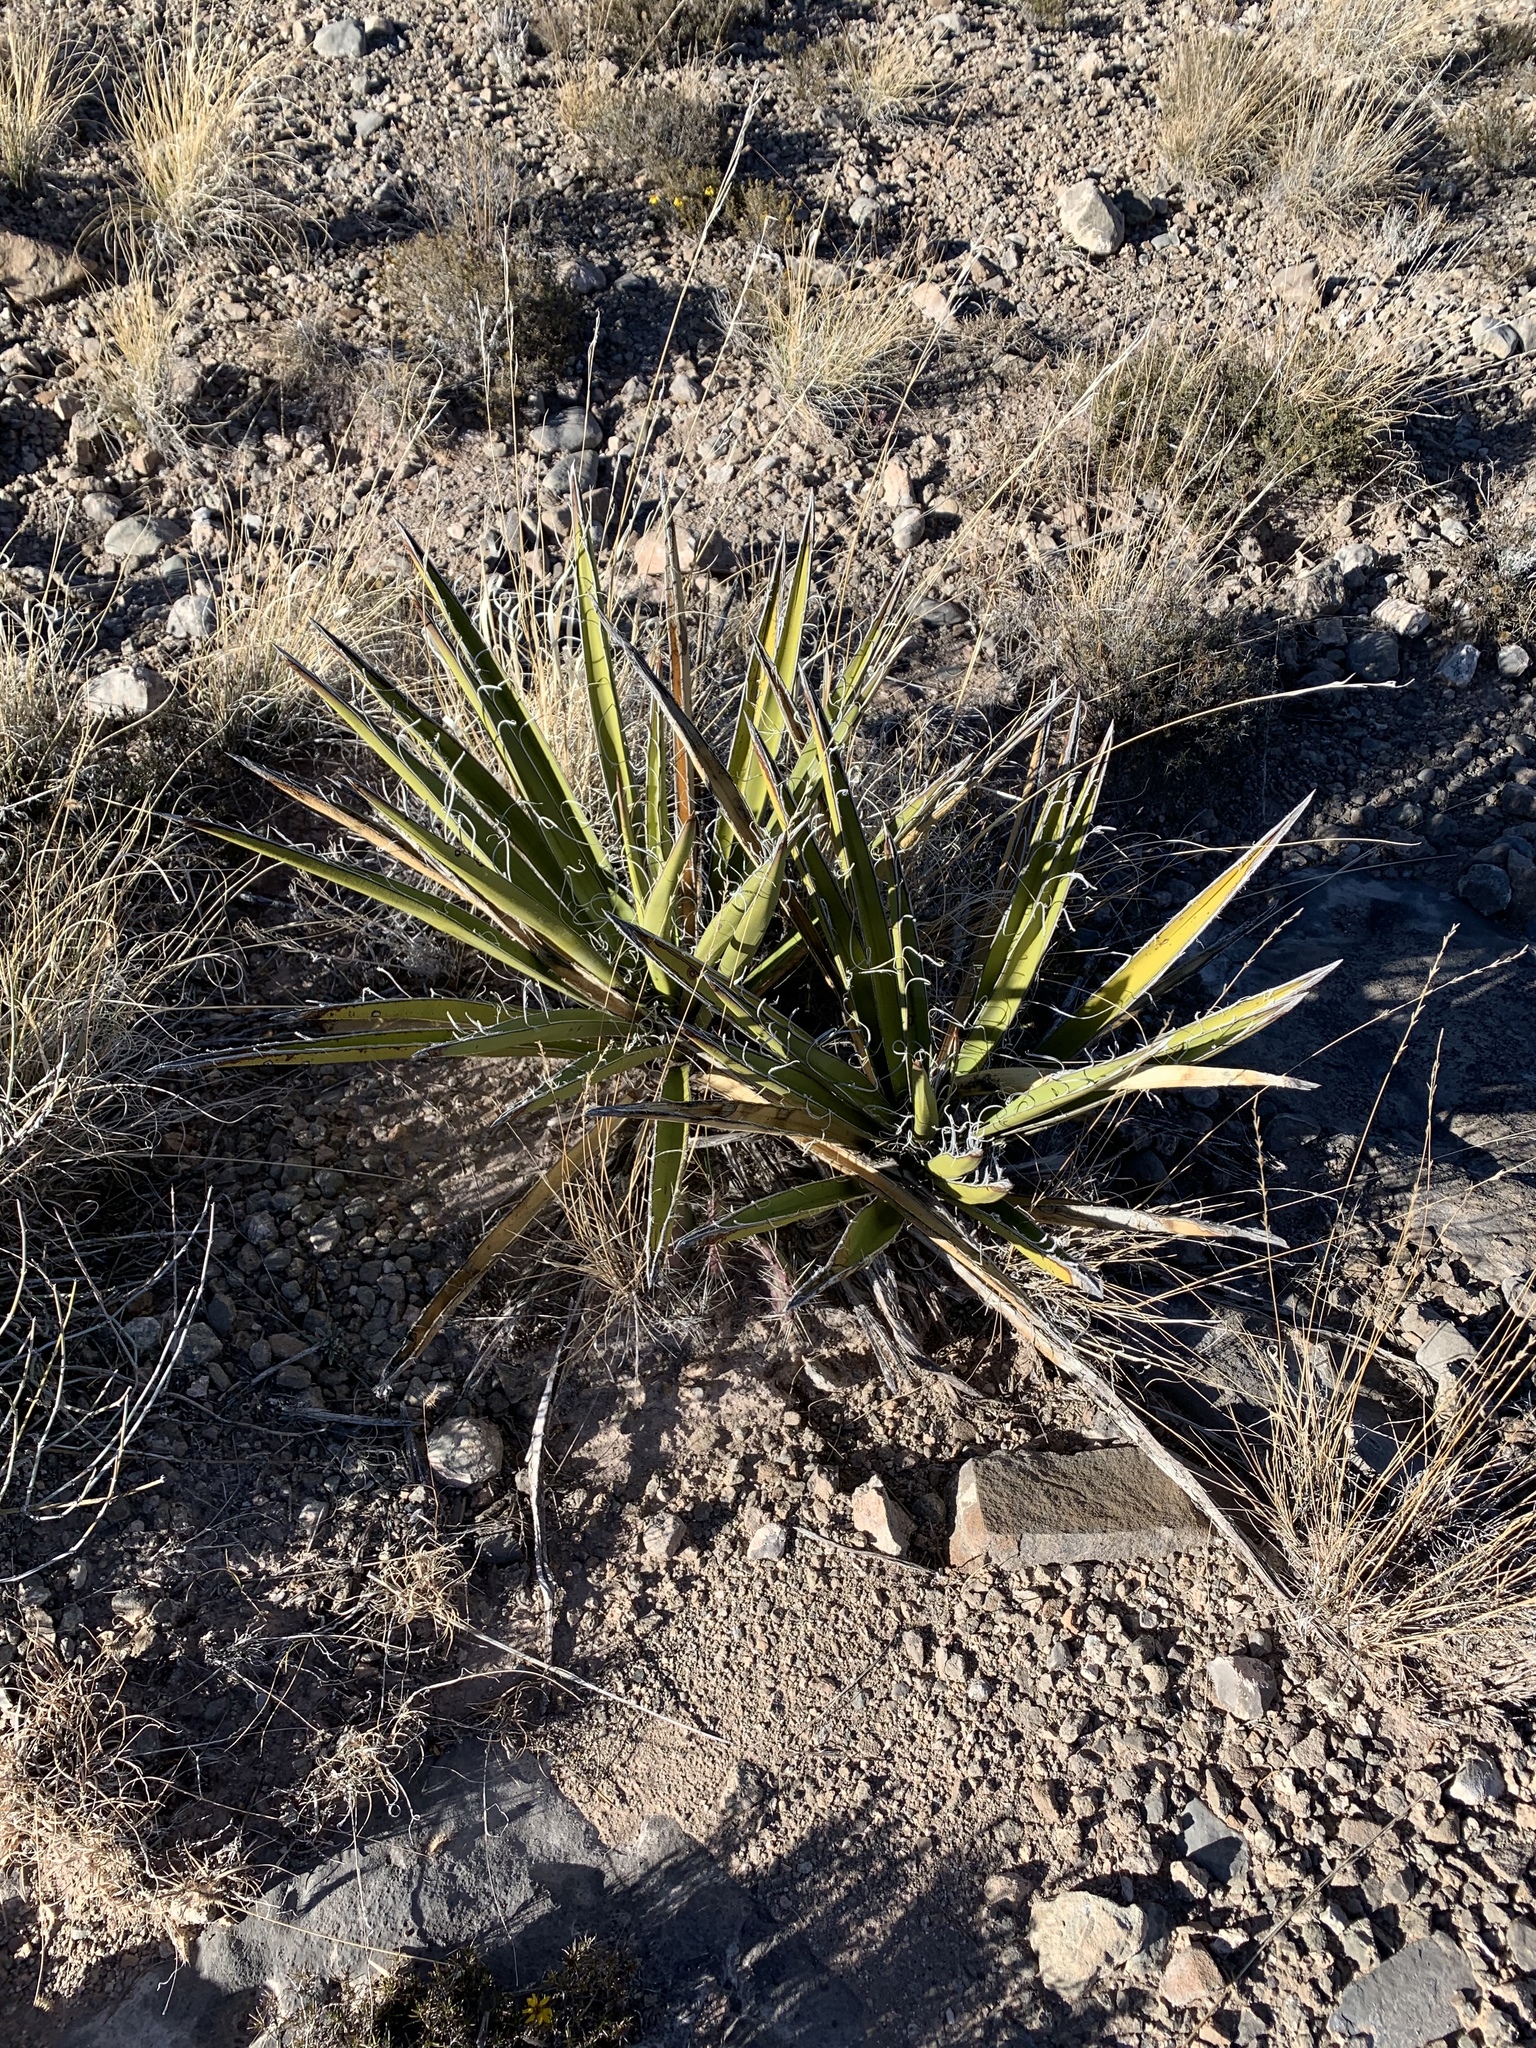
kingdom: Plantae
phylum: Tracheophyta
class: Liliopsida
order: Asparagales
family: Asparagaceae
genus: Yucca
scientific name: Yucca baccata
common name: Banana yucca
